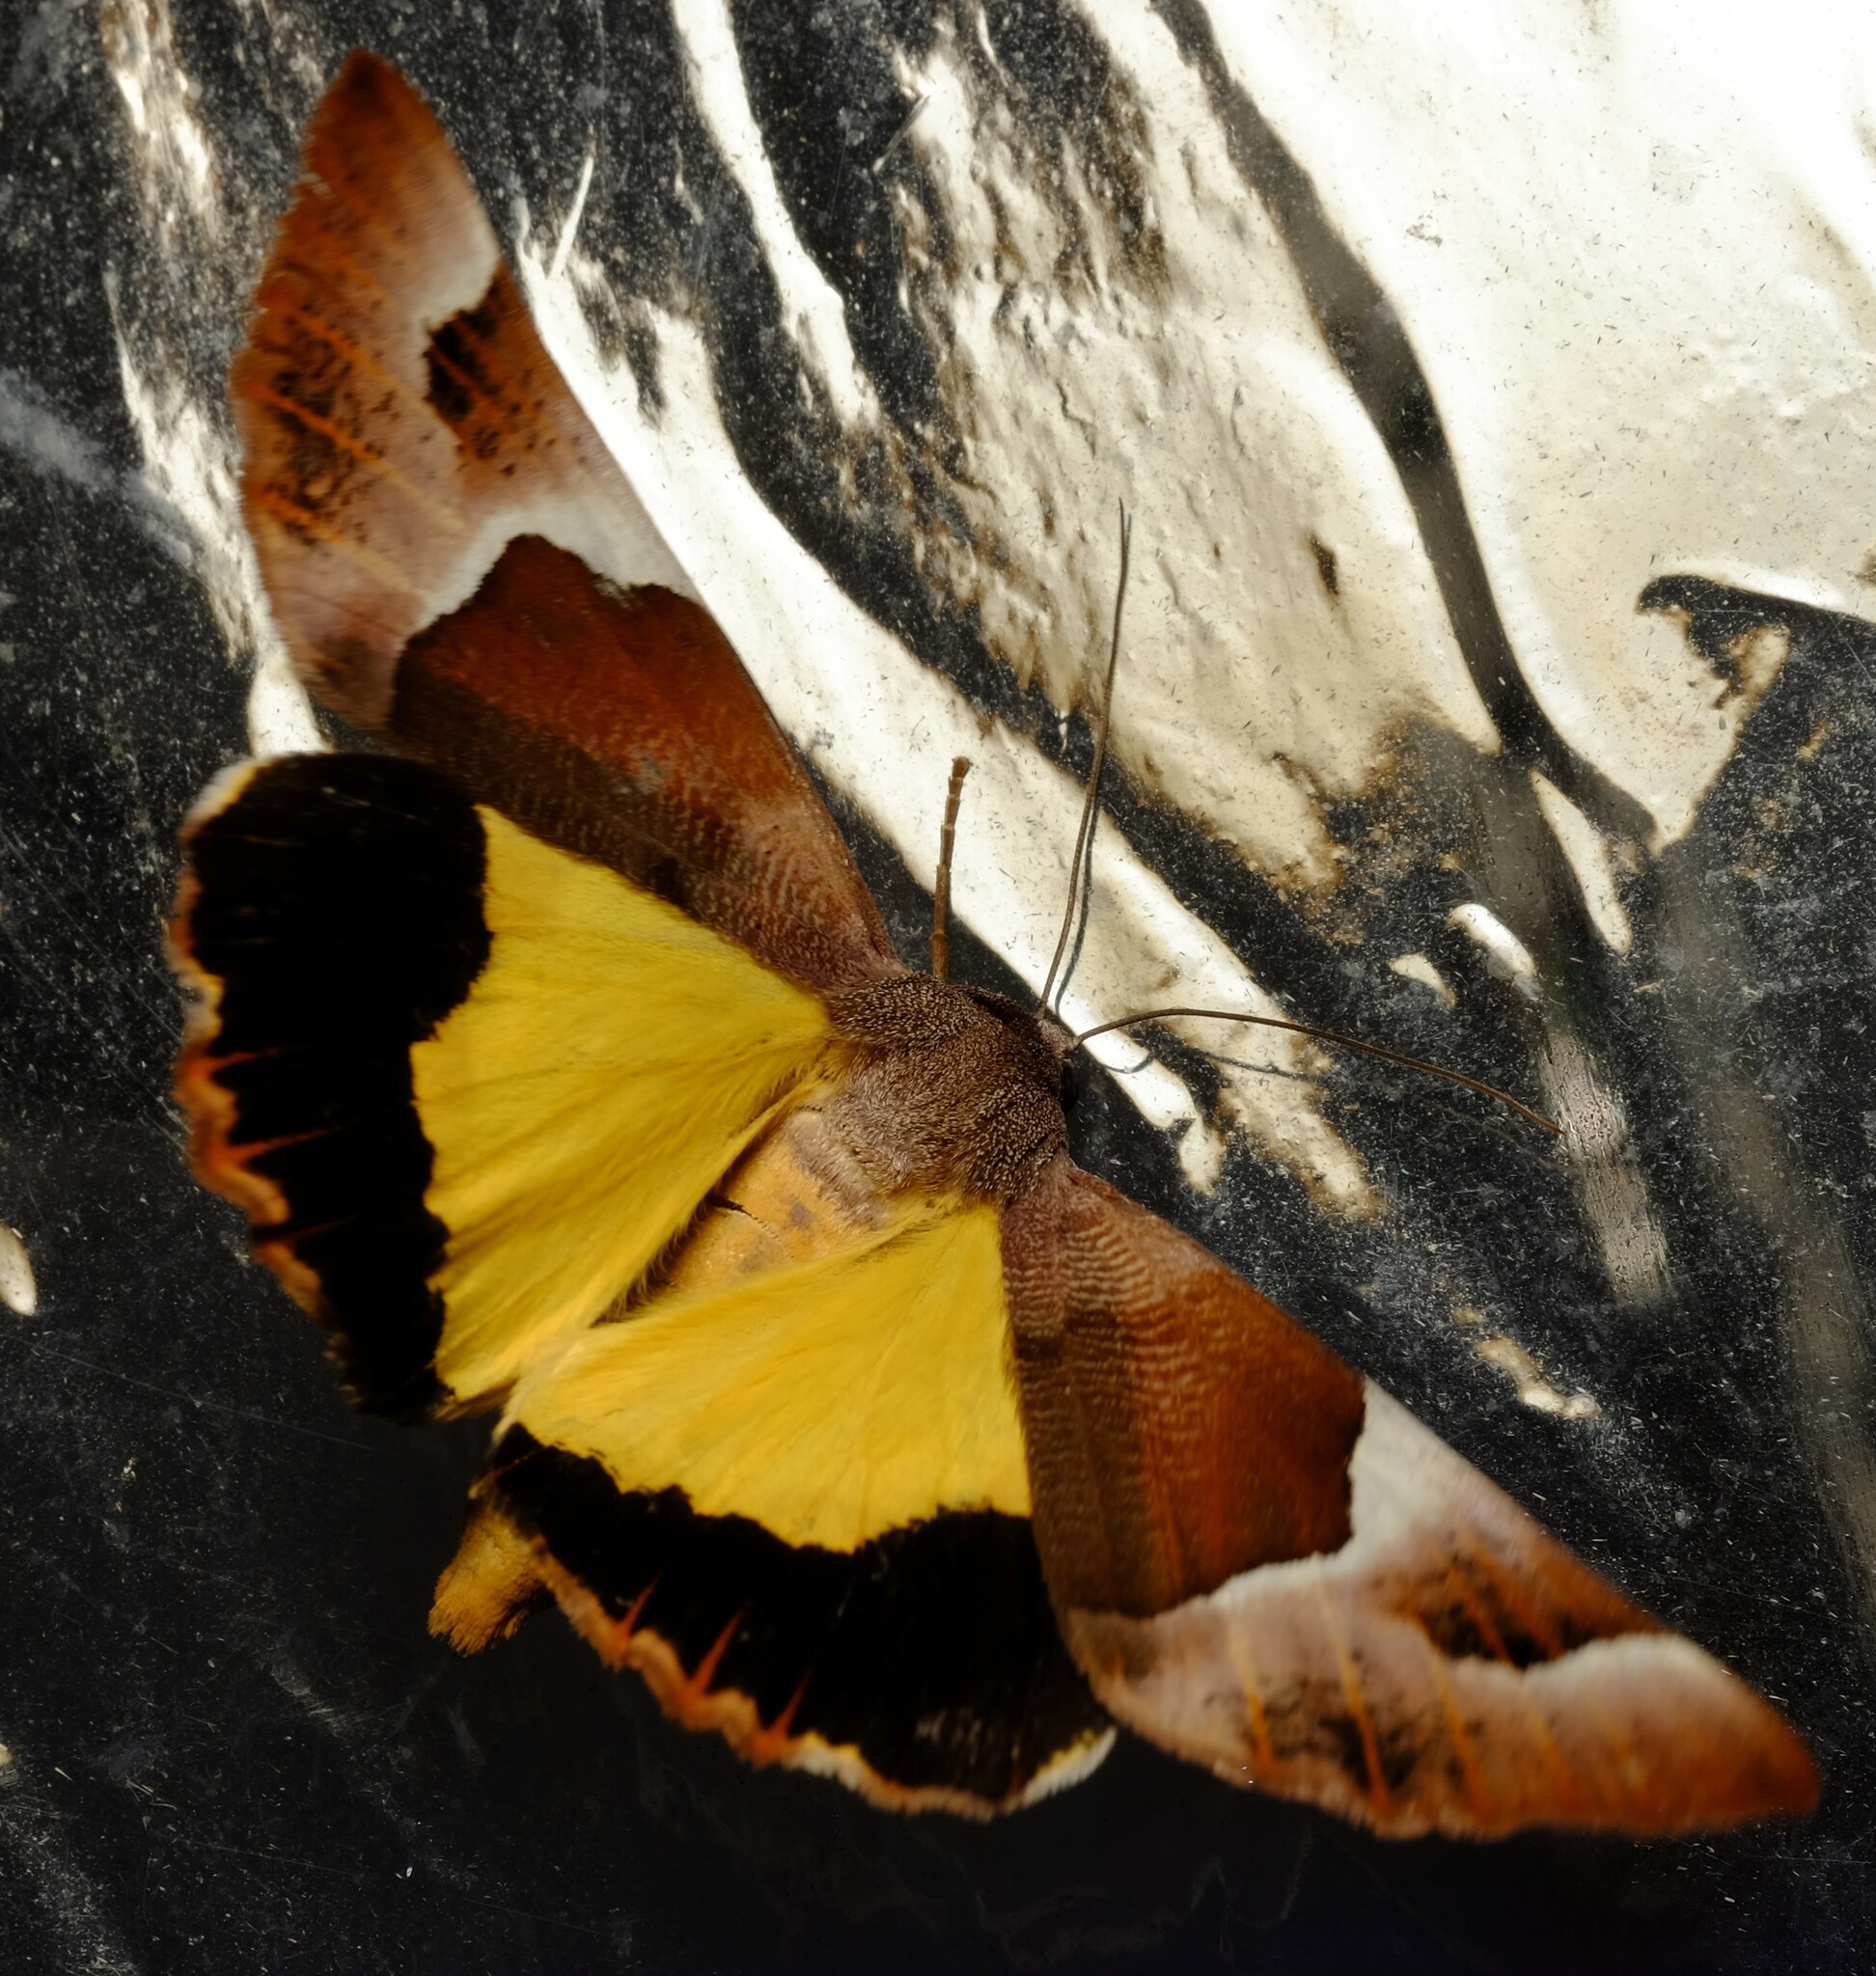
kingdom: Animalia
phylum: Arthropoda
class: Insecta
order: Lepidoptera
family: Geometridae
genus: Niceteria
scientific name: Niceteria macrocosma
